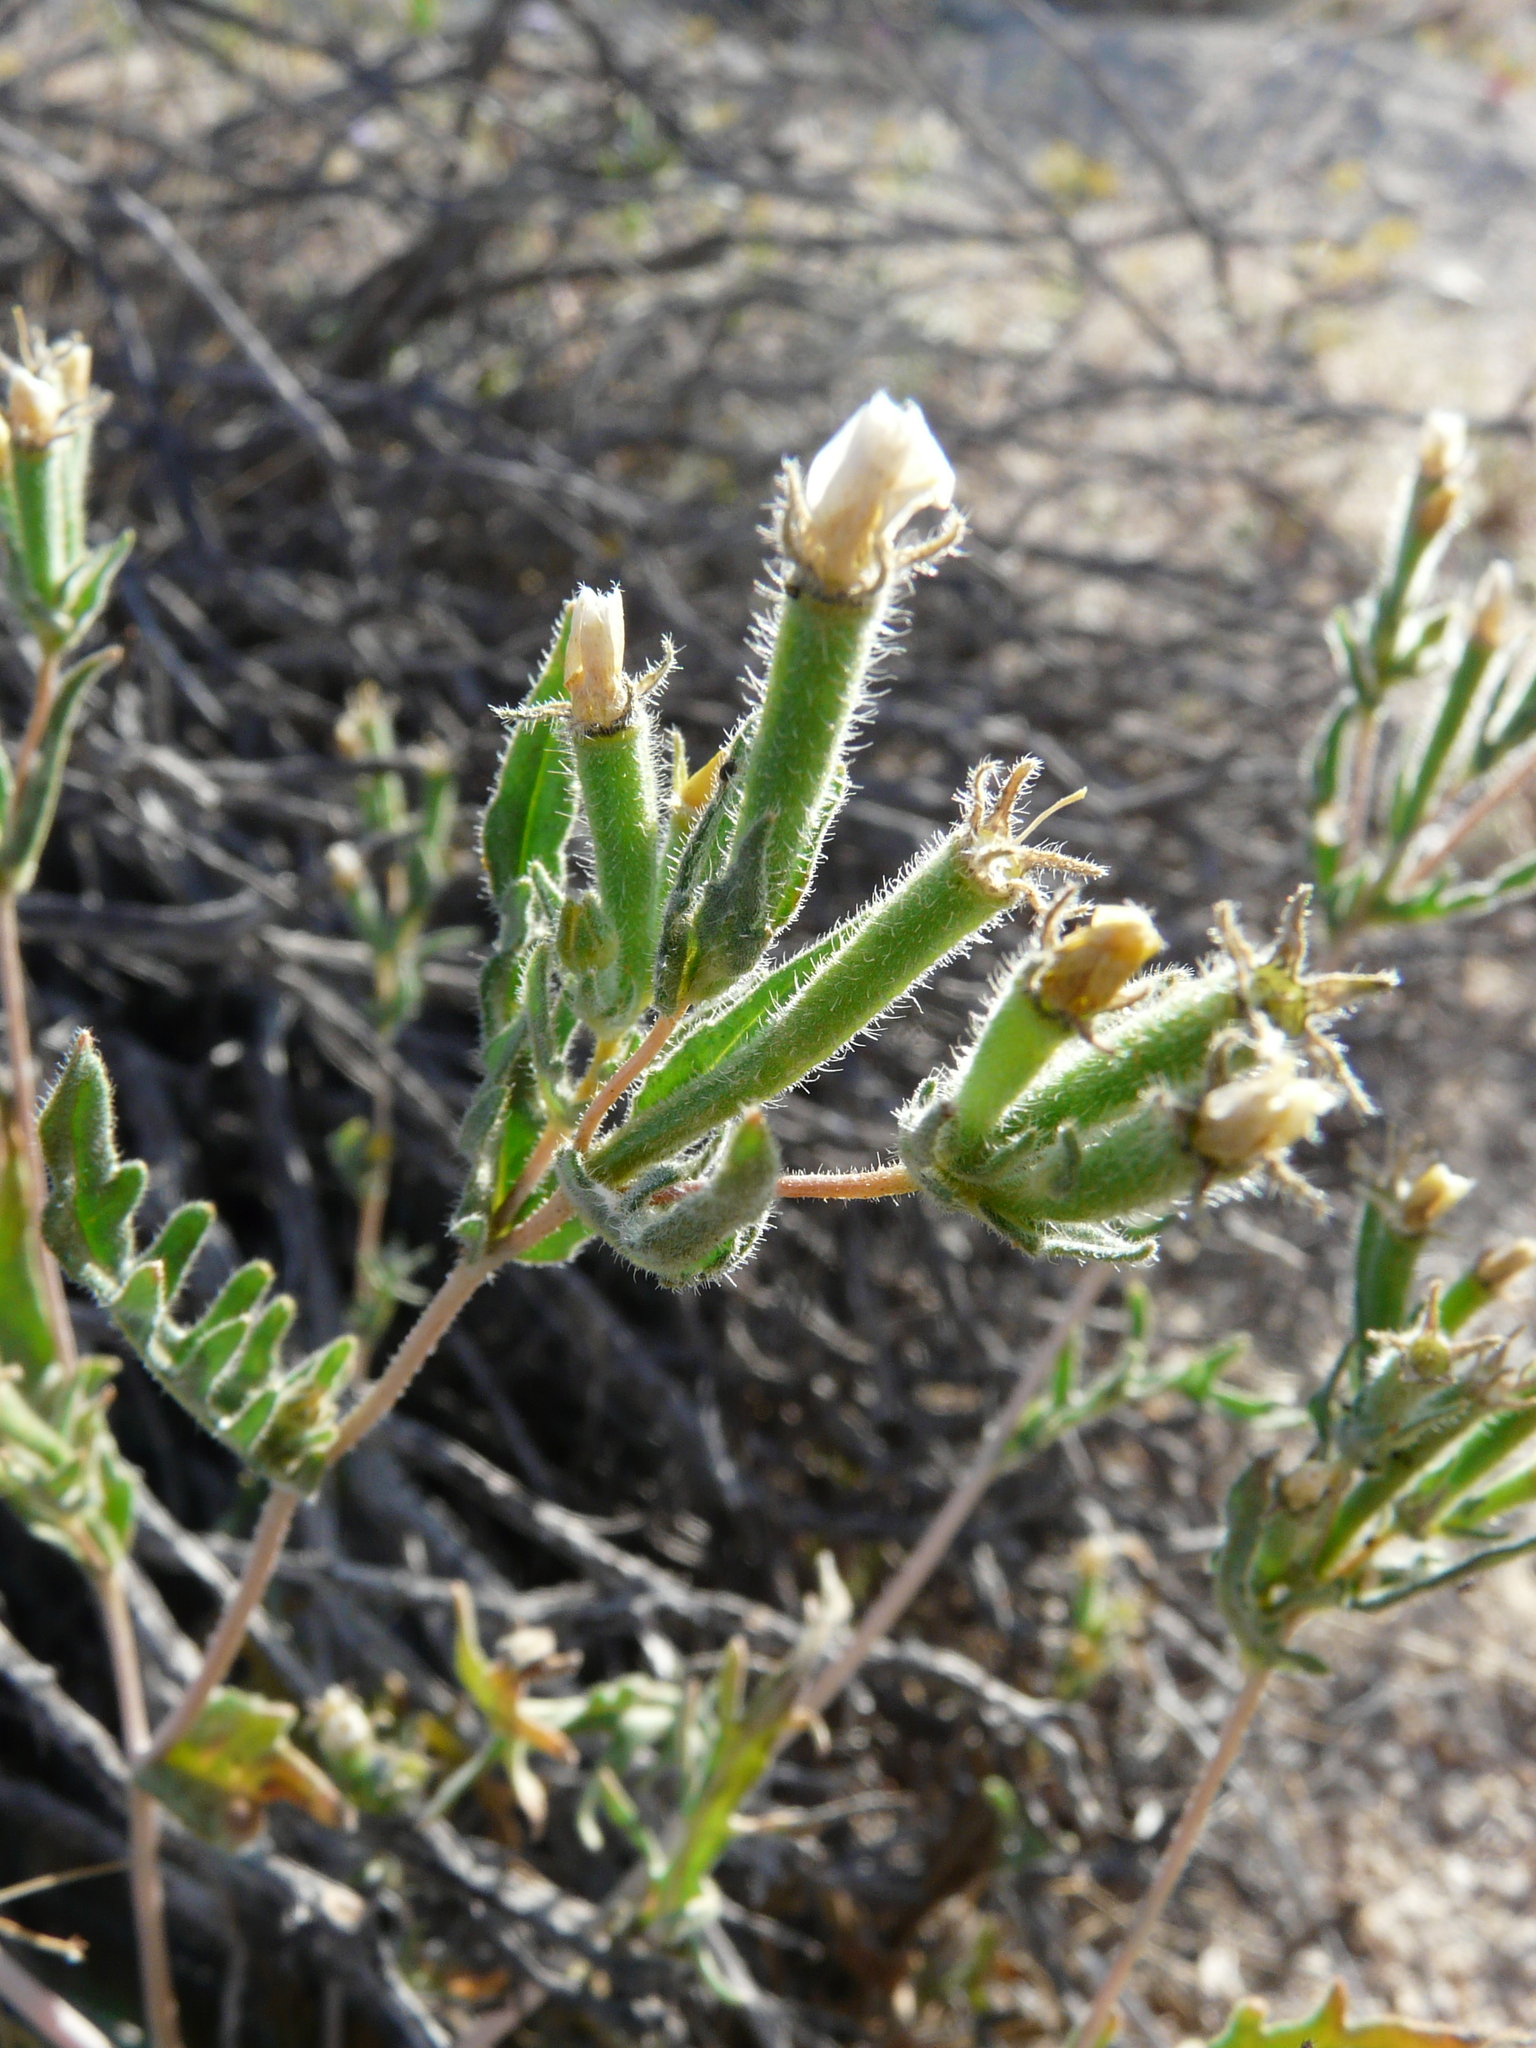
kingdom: Plantae
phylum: Tracheophyta
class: Magnoliopsida
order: Cornales
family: Loasaceae
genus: Mentzelia
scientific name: Mentzelia albicaulis
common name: White-stem blazingstar
